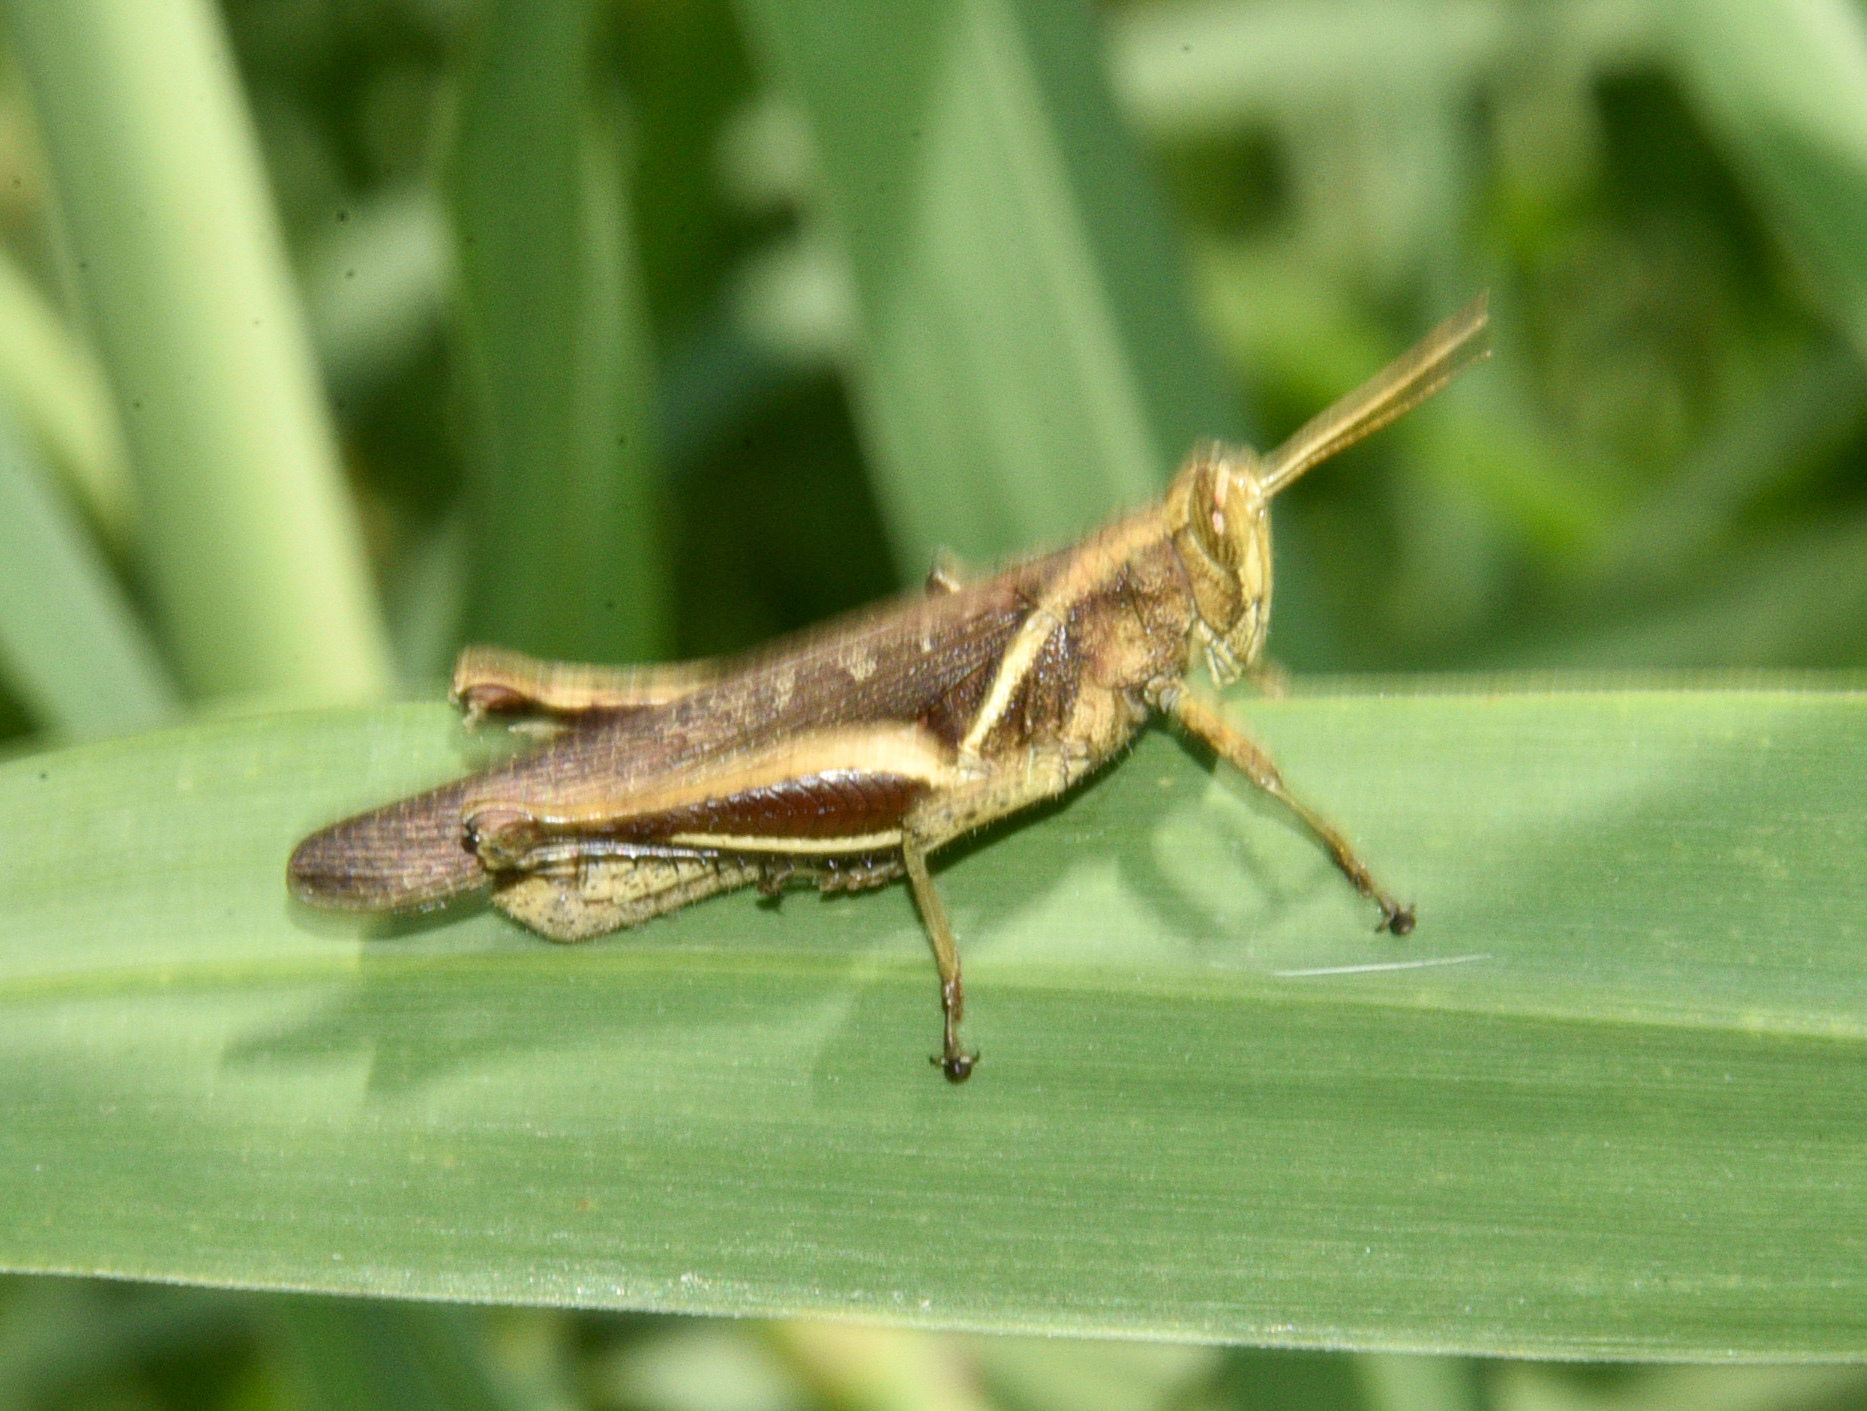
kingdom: Animalia
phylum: Arthropoda
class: Insecta
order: Orthoptera
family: Acrididae
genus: Abracris
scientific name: Abracris flavolineata
